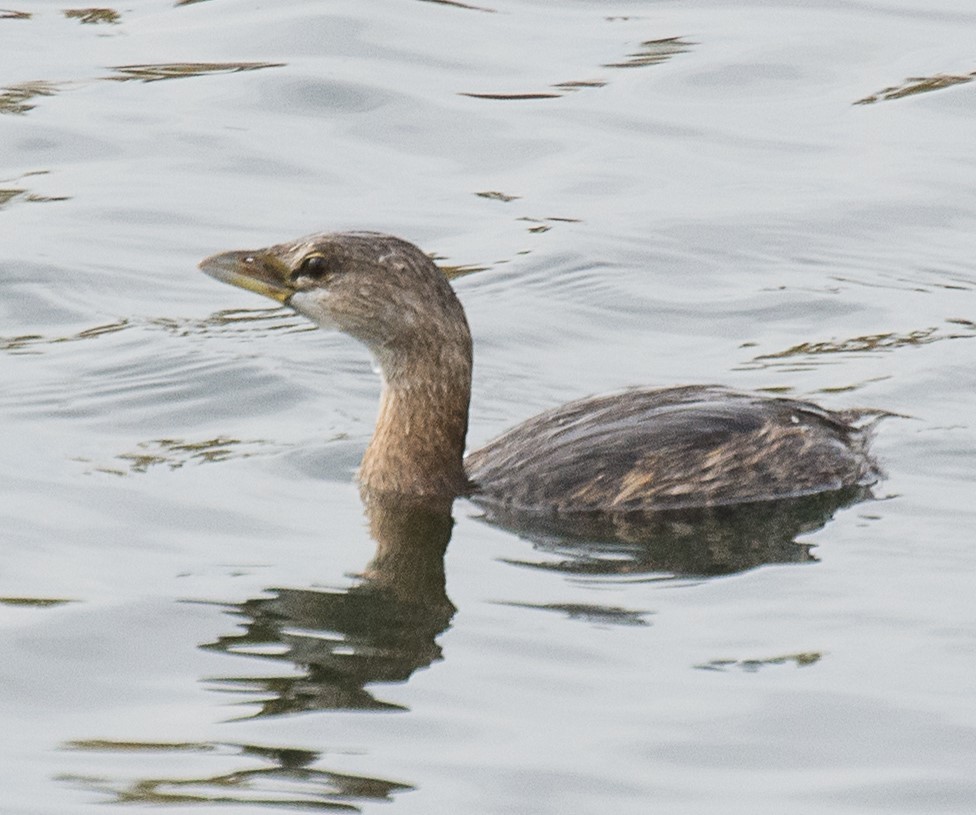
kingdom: Animalia
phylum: Chordata
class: Aves
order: Podicipediformes
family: Podicipedidae
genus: Podilymbus
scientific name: Podilymbus podiceps
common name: Pied-billed grebe
